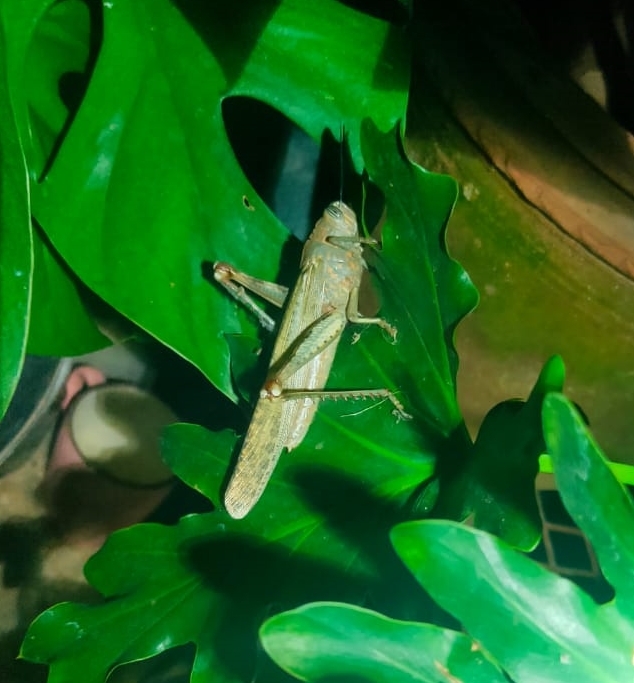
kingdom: Animalia
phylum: Arthropoda
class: Insecta
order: Orthoptera
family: Acrididae
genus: Anacridium
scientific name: Anacridium flavescens
